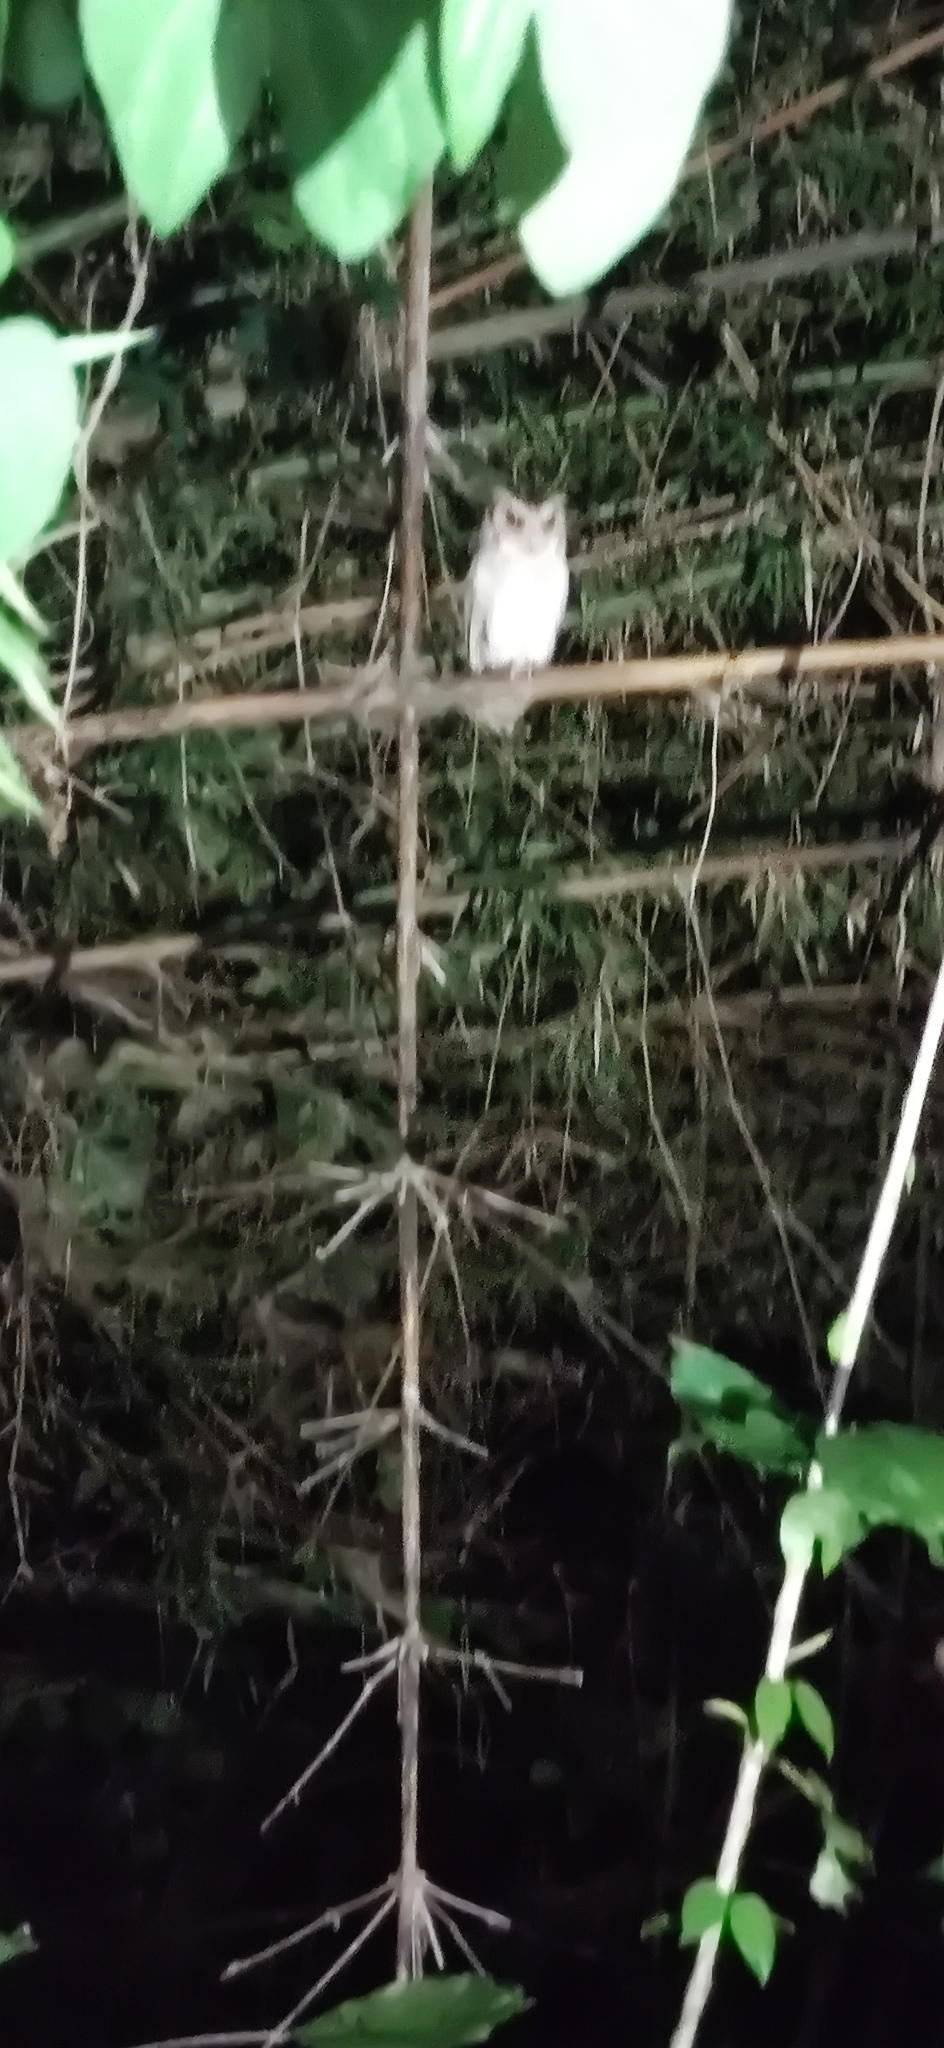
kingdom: Animalia
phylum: Chordata
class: Aves
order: Strigiformes
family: Strigidae
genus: Otus
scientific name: Otus lettia
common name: Collared scops owl
